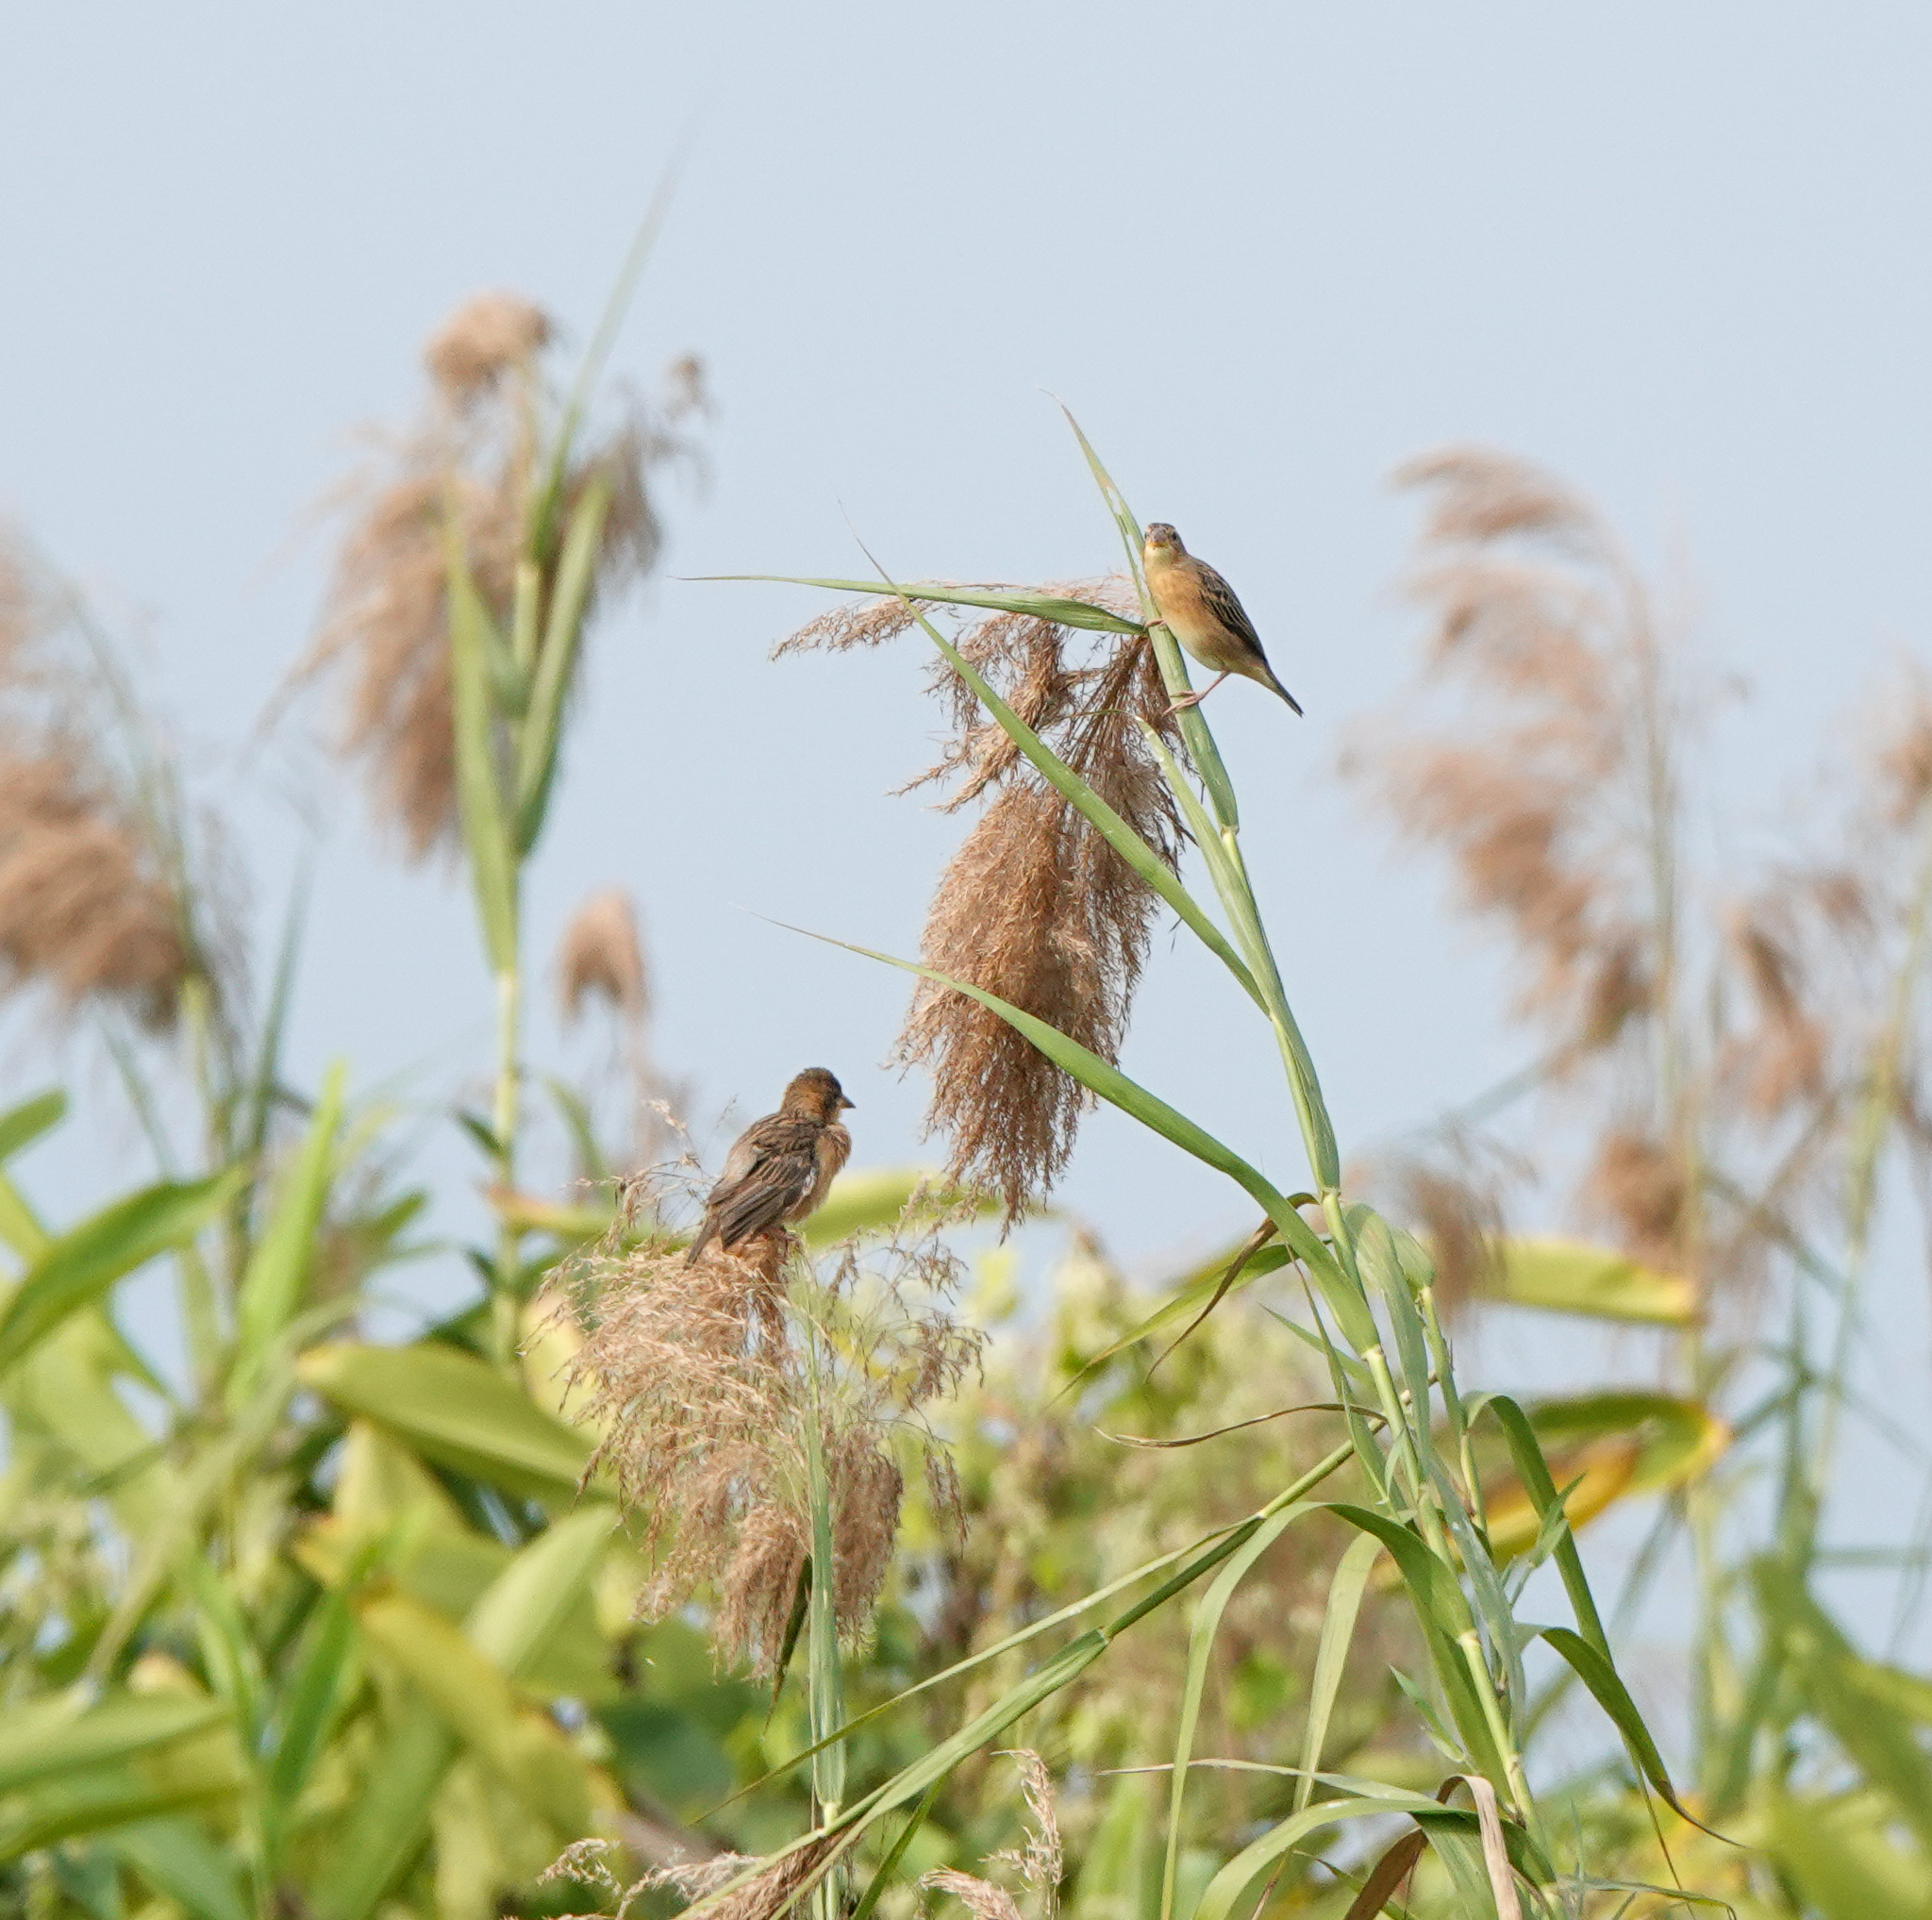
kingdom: Animalia
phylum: Chordata
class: Aves
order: Passeriformes
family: Ploceidae
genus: Ploceus
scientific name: Ploceus philippinus
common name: Baya weaver
